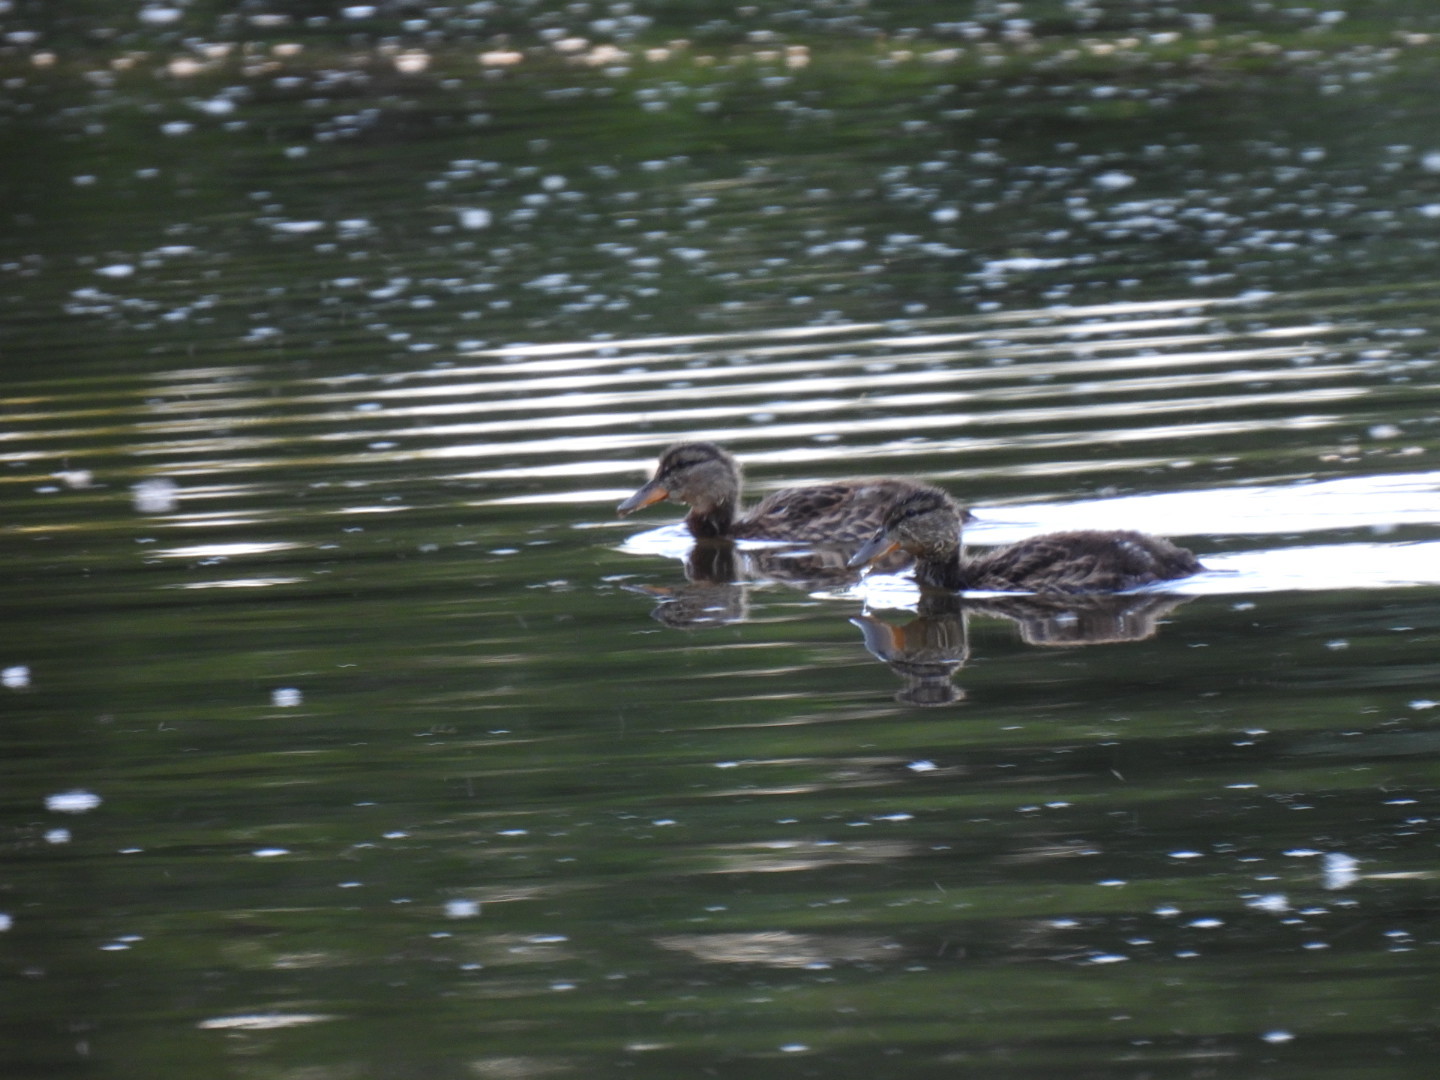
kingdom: Animalia
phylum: Chordata
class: Aves
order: Anseriformes
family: Anatidae
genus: Anas
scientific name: Anas platyrhynchos
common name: Mallard
